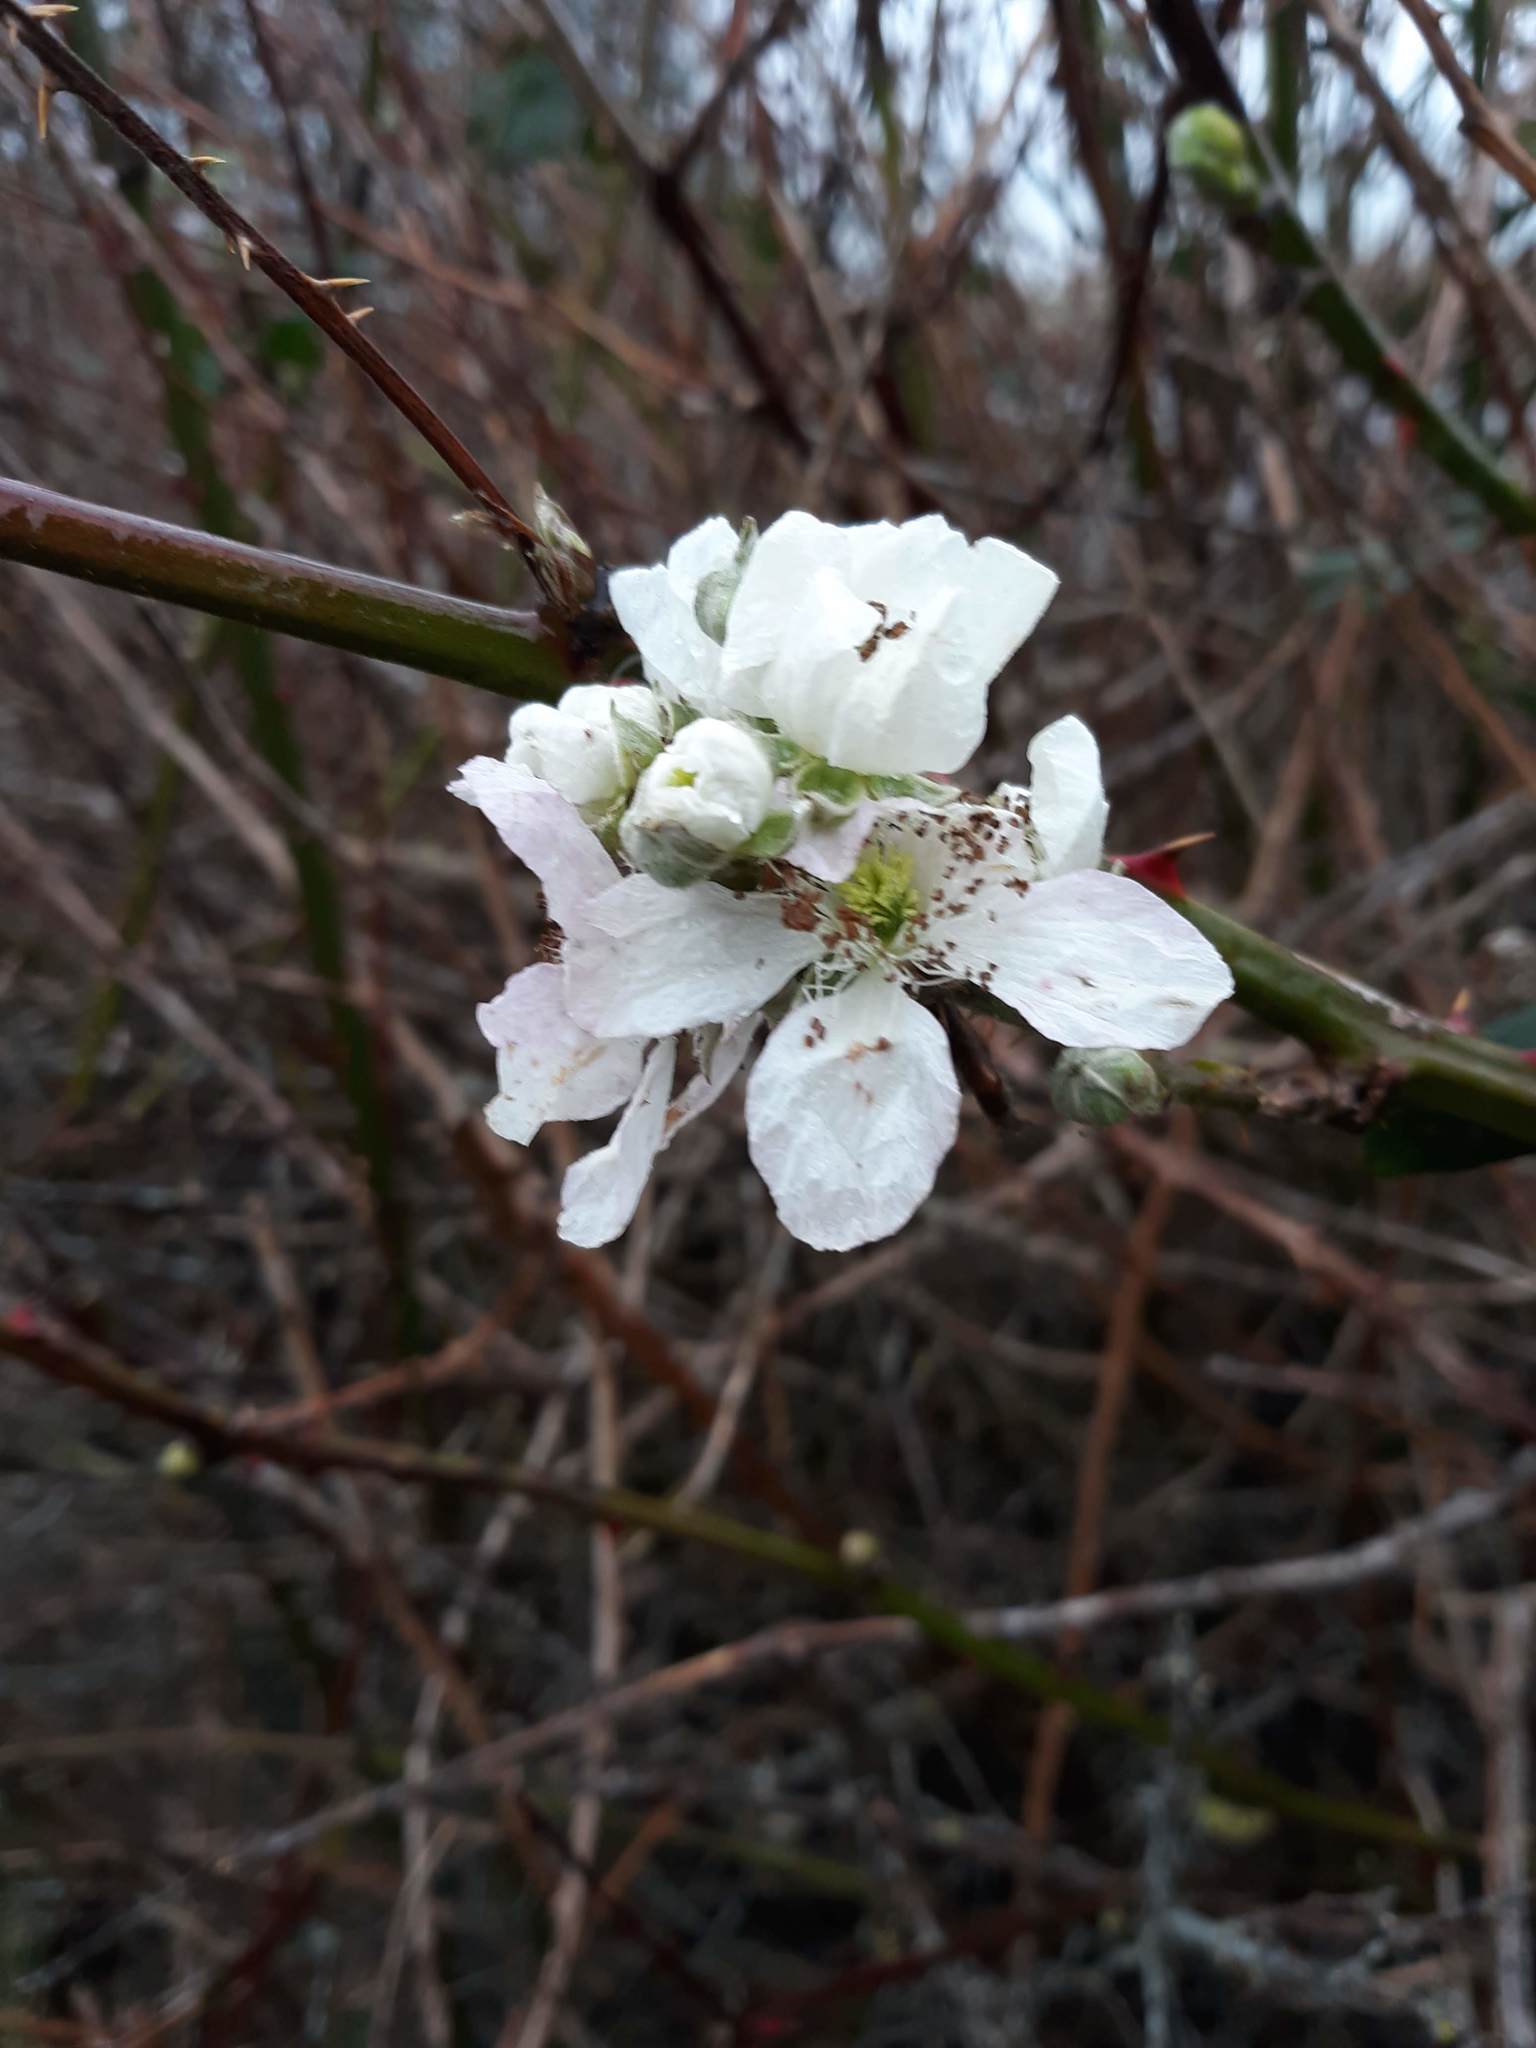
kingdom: Plantae
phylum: Tracheophyta
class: Magnoliopsida
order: Rosales
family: Rosaceae
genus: Rubus
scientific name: Rubus armeniacus
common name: Himalayan blackberry
